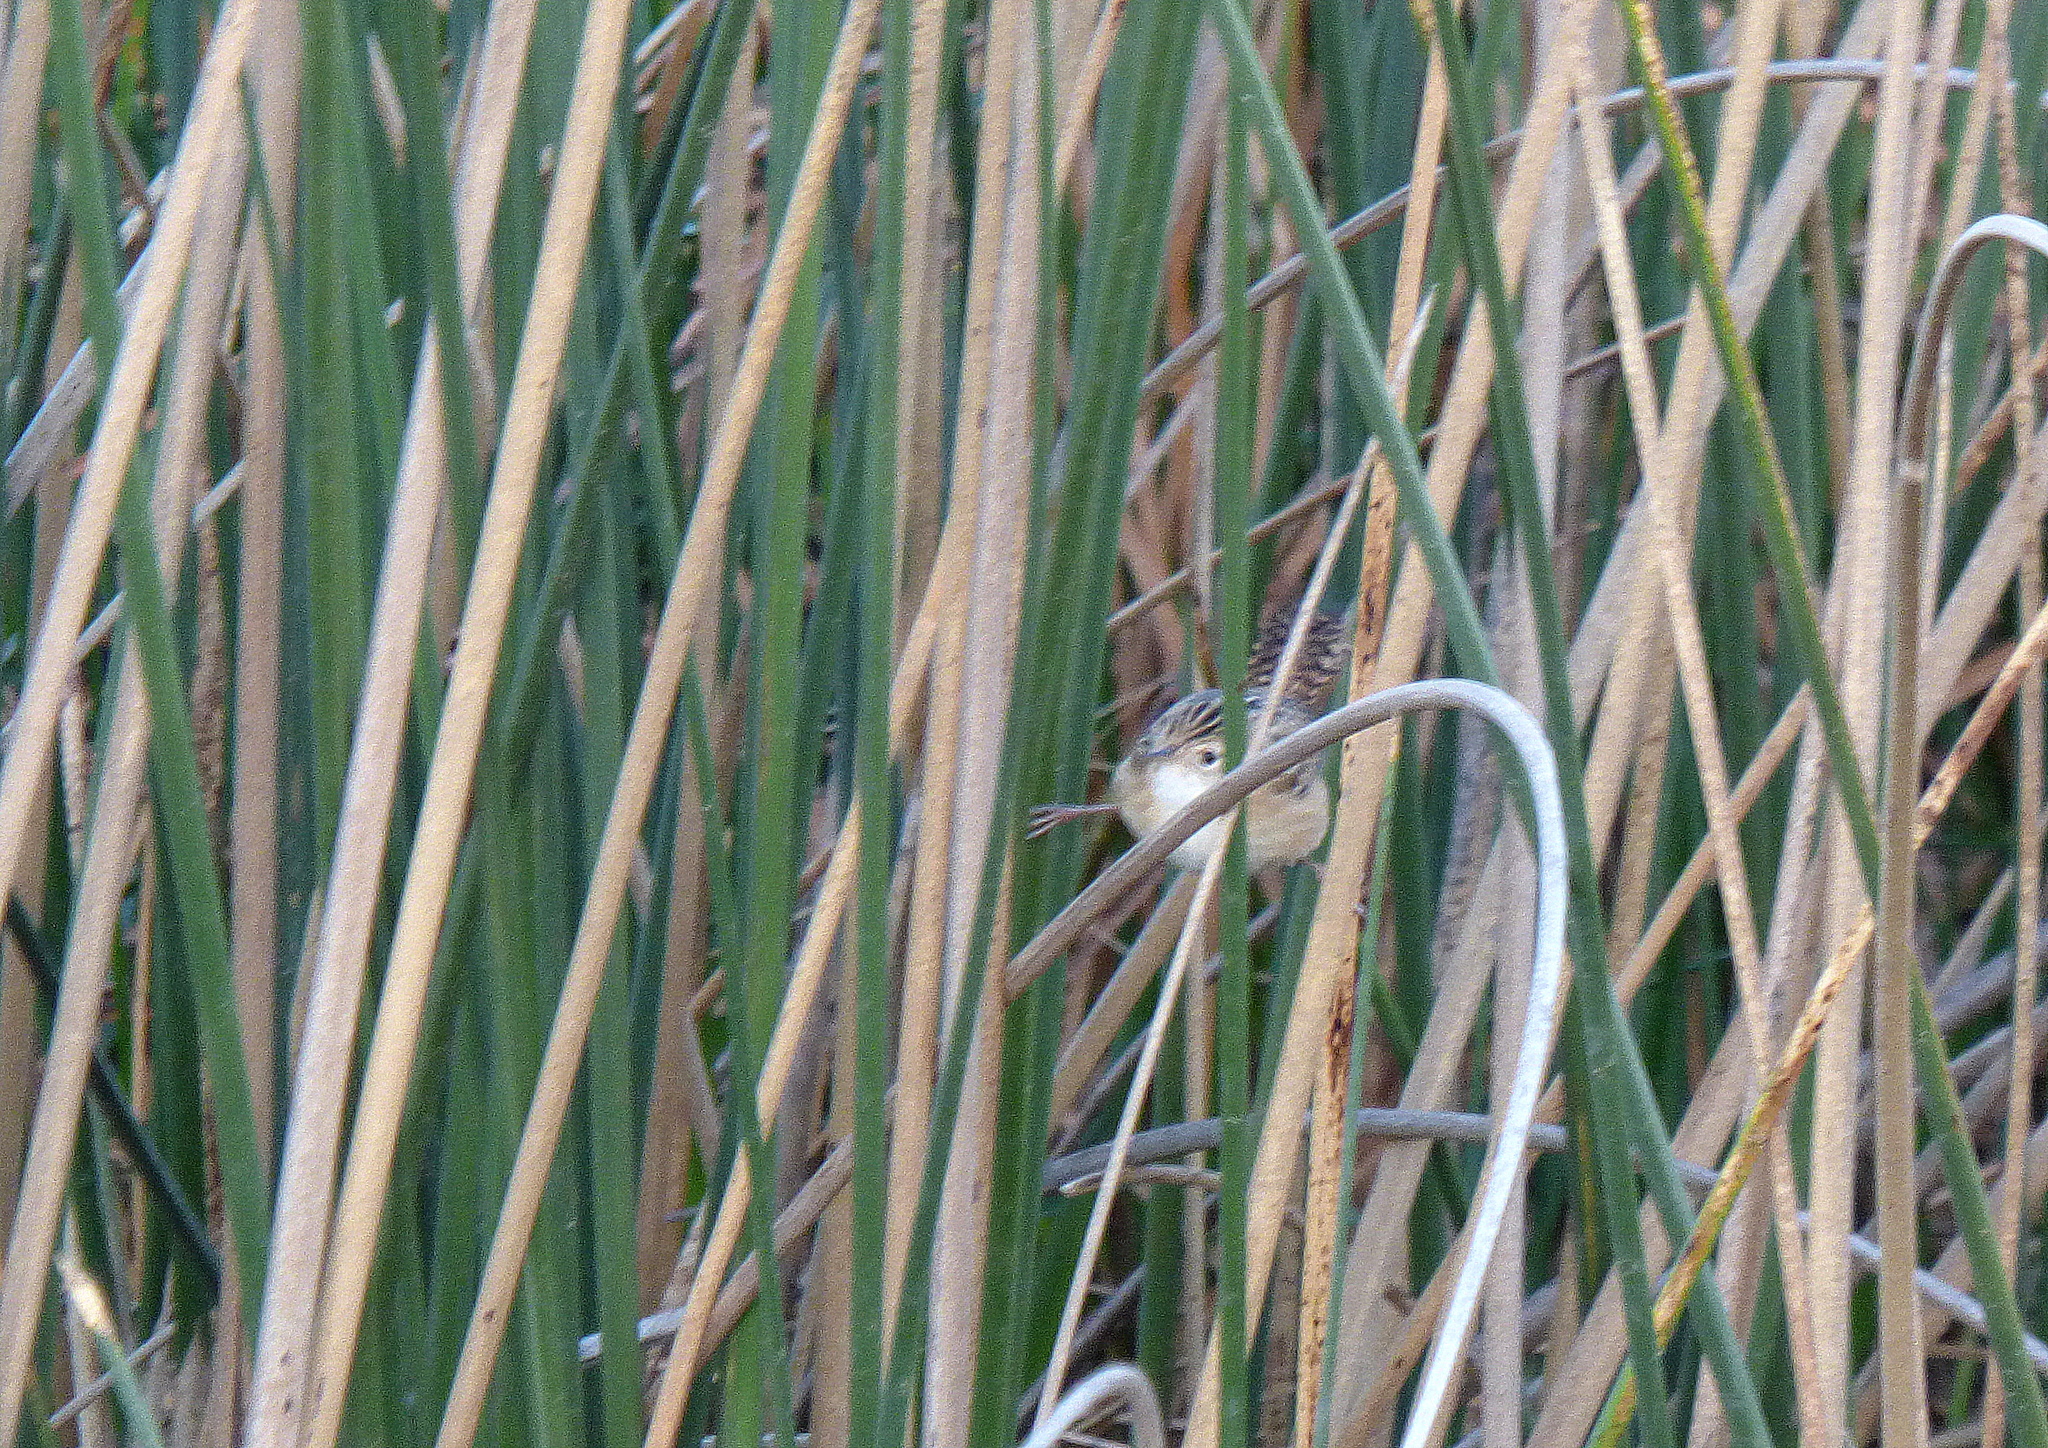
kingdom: Animalia
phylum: Chordata
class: Aves
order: Passeriformes
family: Troglodytidae
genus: Cistothorus
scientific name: Cistothorus platensis
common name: Sedge wren
